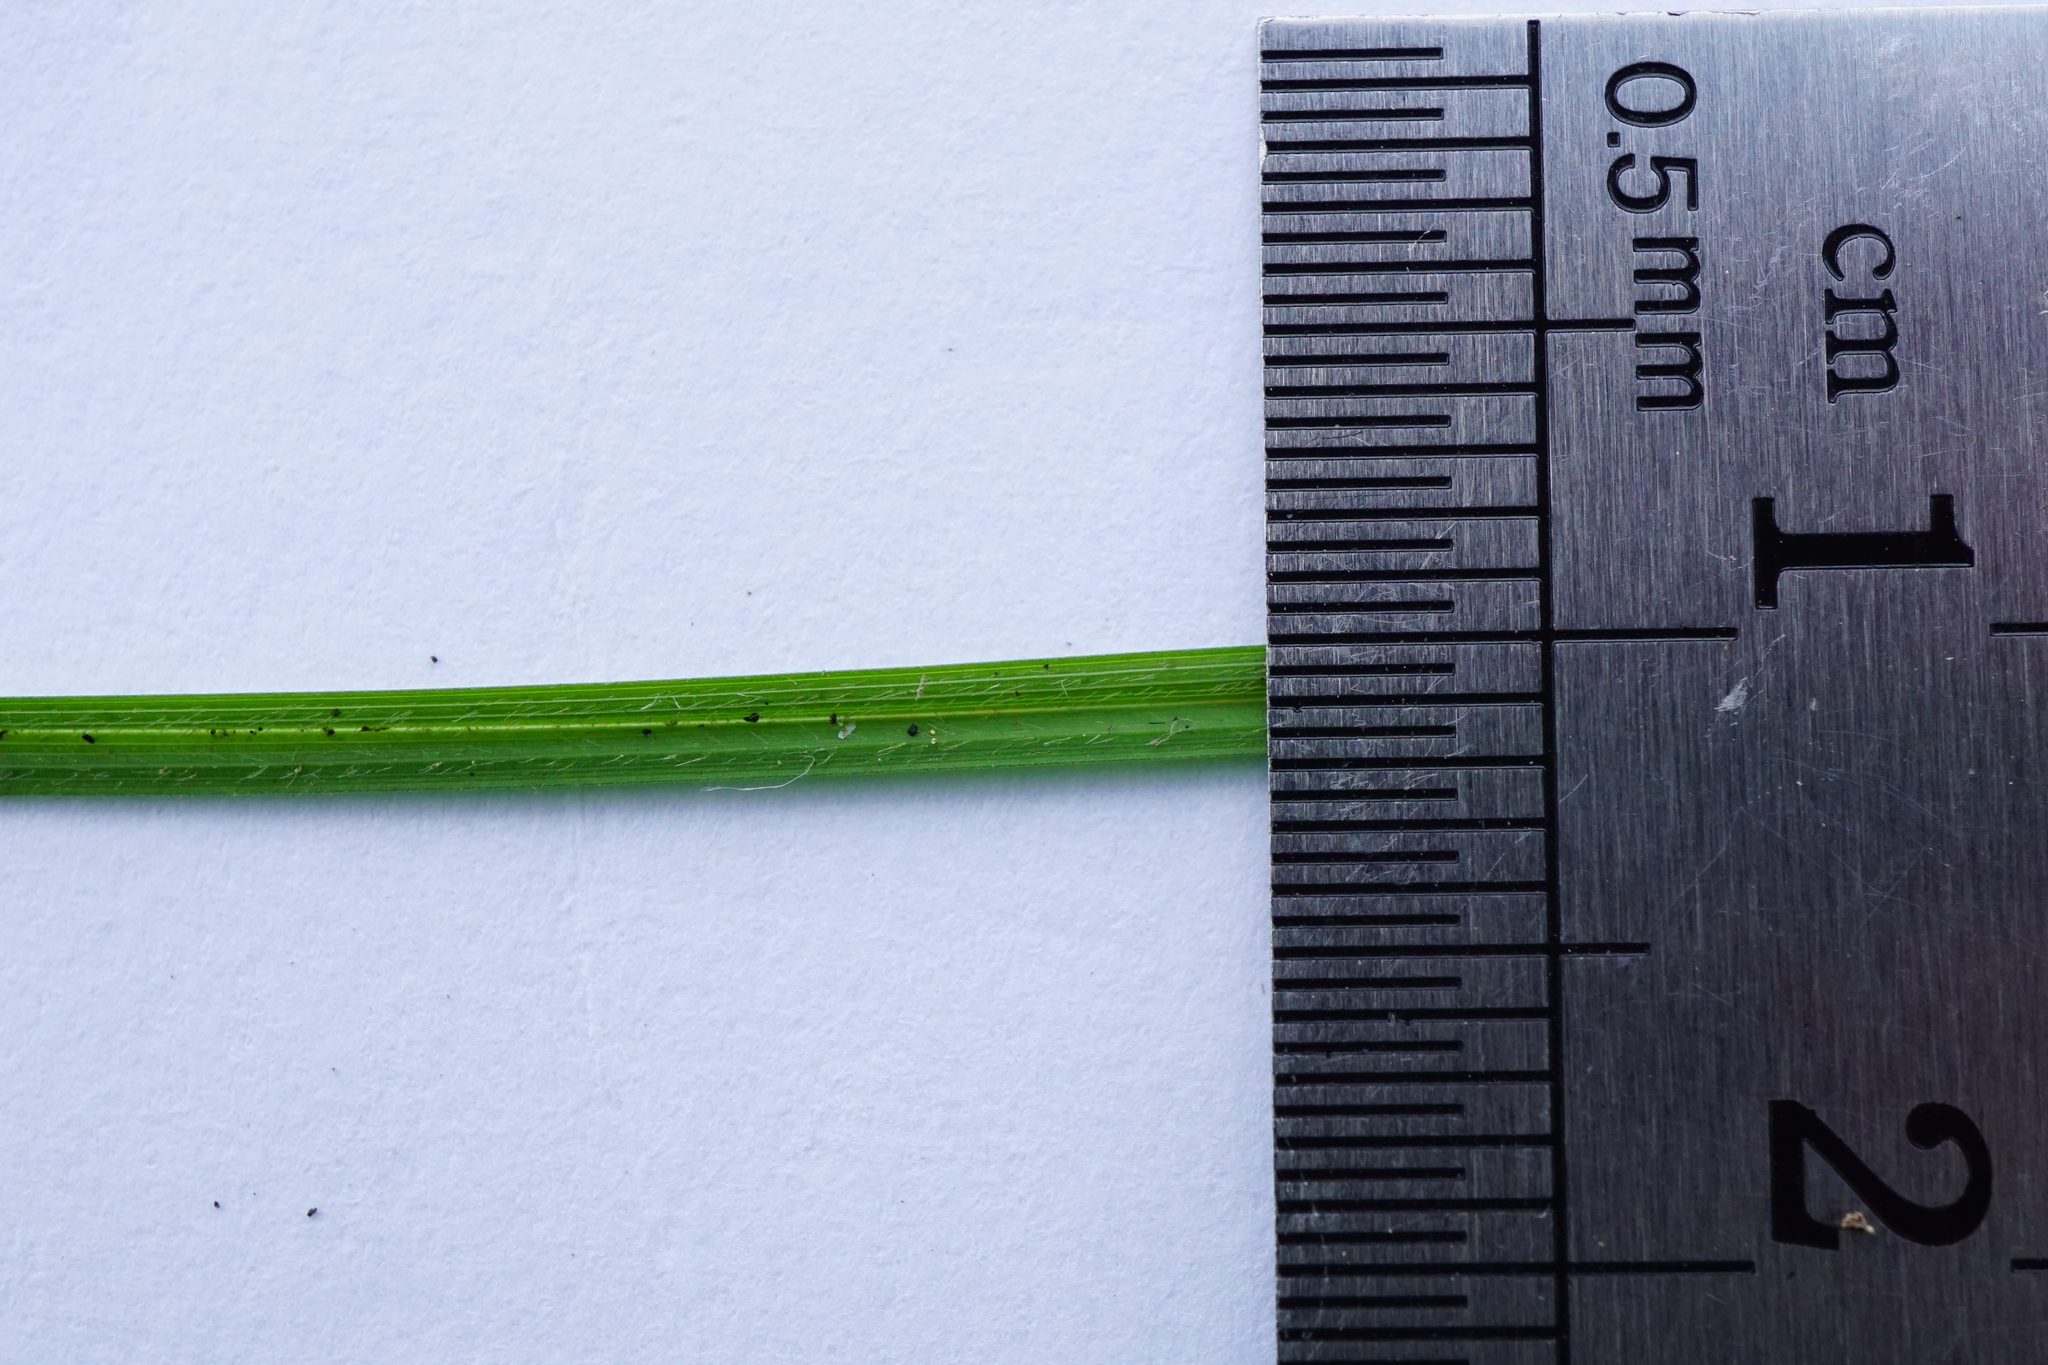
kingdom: Plantae
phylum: Tracheophyta
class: Liliopsida
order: Poales
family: Cyperaceae
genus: Carex
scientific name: Carex montana
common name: Soft-leaved sedge
